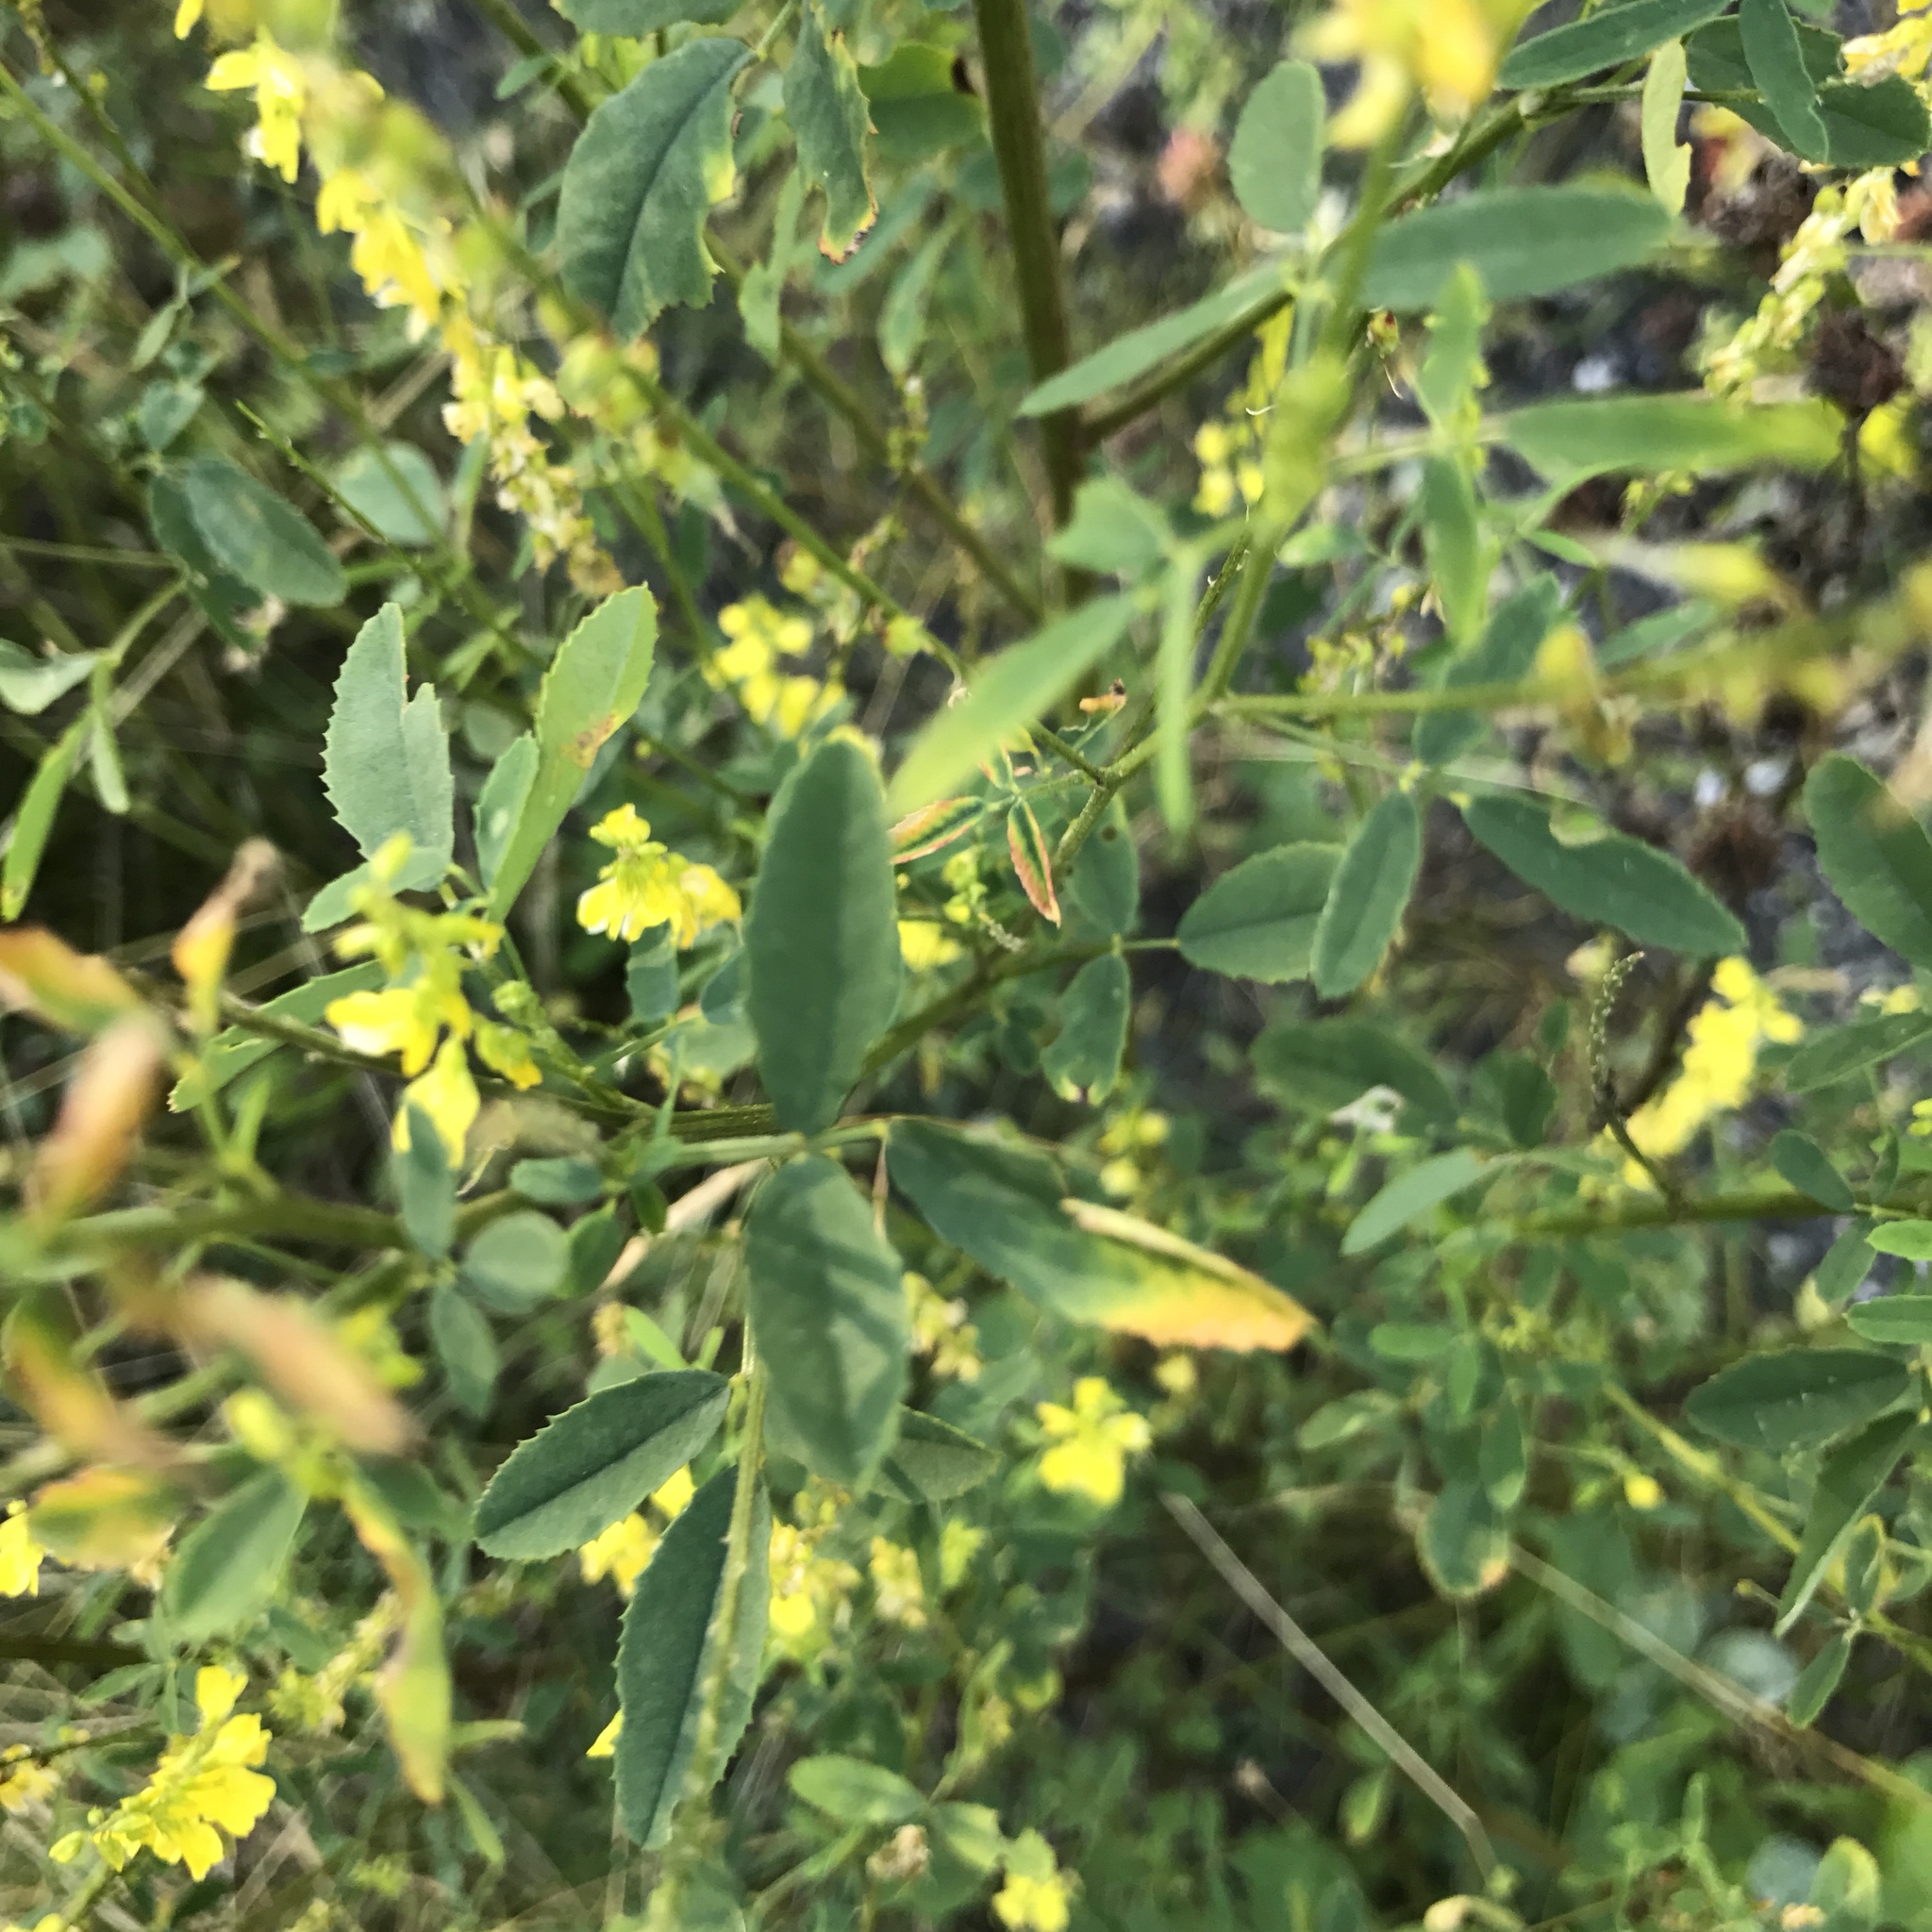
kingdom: Plantae
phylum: Tracheophyta
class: Magnoliopsida
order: Fabales
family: Fabaceae
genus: Melilotus
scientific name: Melilotus officinalis
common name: Sweetclover
